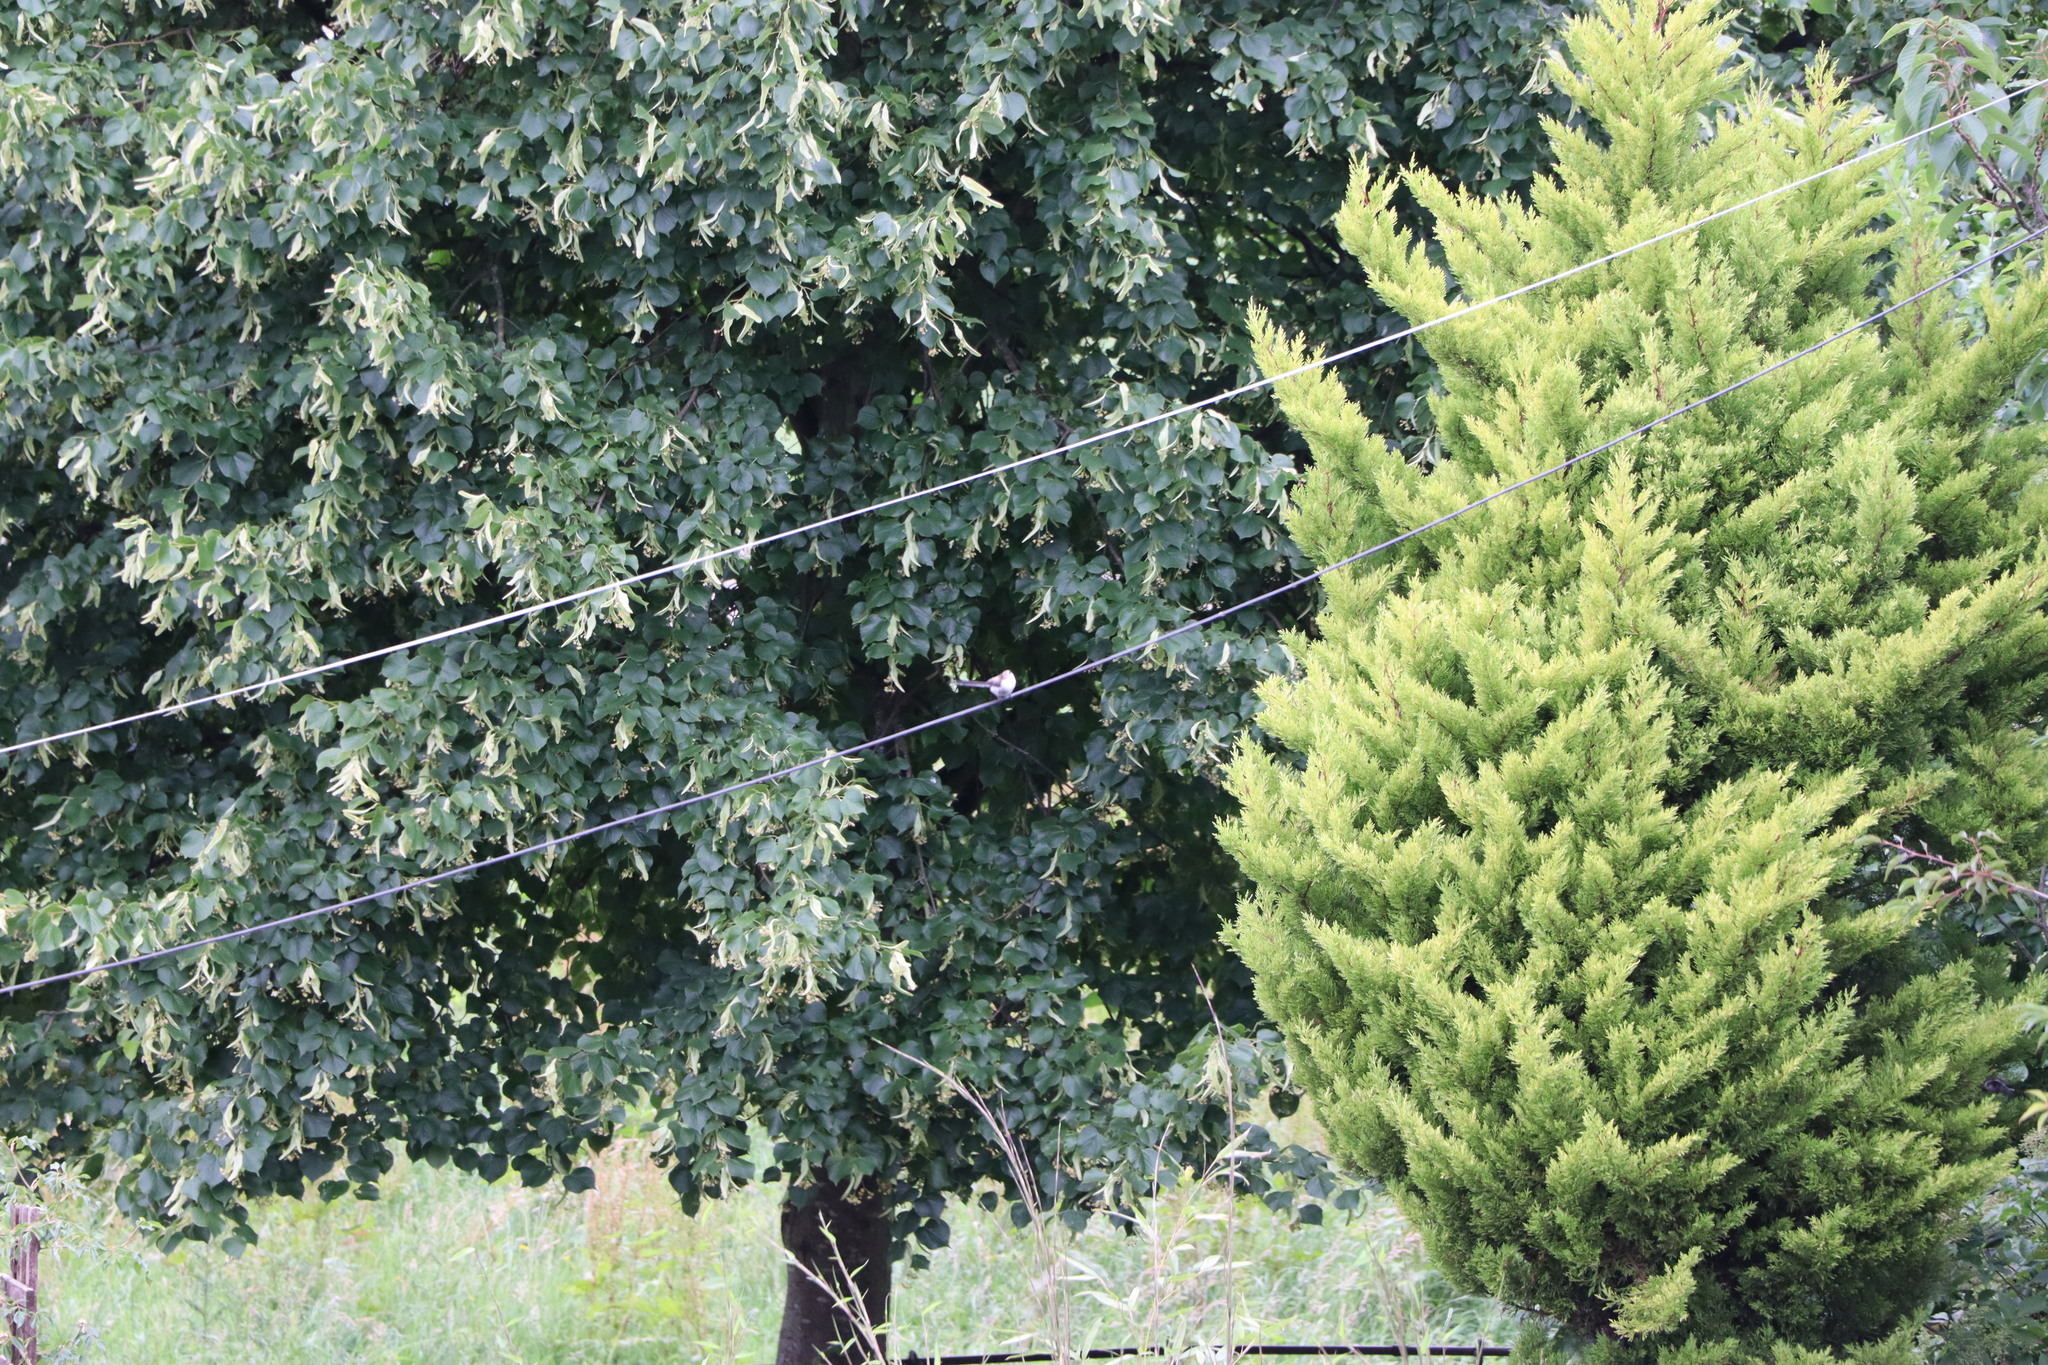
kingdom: Animalia
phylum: Chordata
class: Aves
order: Passeriformes
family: Aegithalidae
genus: Aegithalos
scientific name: Aegithalos caudatus
